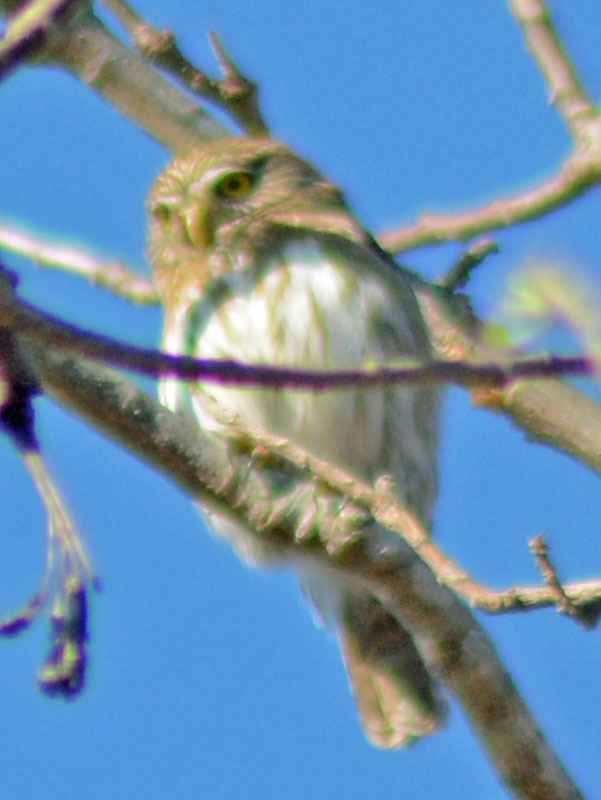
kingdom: Animalia
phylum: Chordata
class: Aves
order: Strigiformes
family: Strigidae
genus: Glaucidium
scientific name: Glaucidium brasilianum
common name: Ferruginous pygmy-owl
